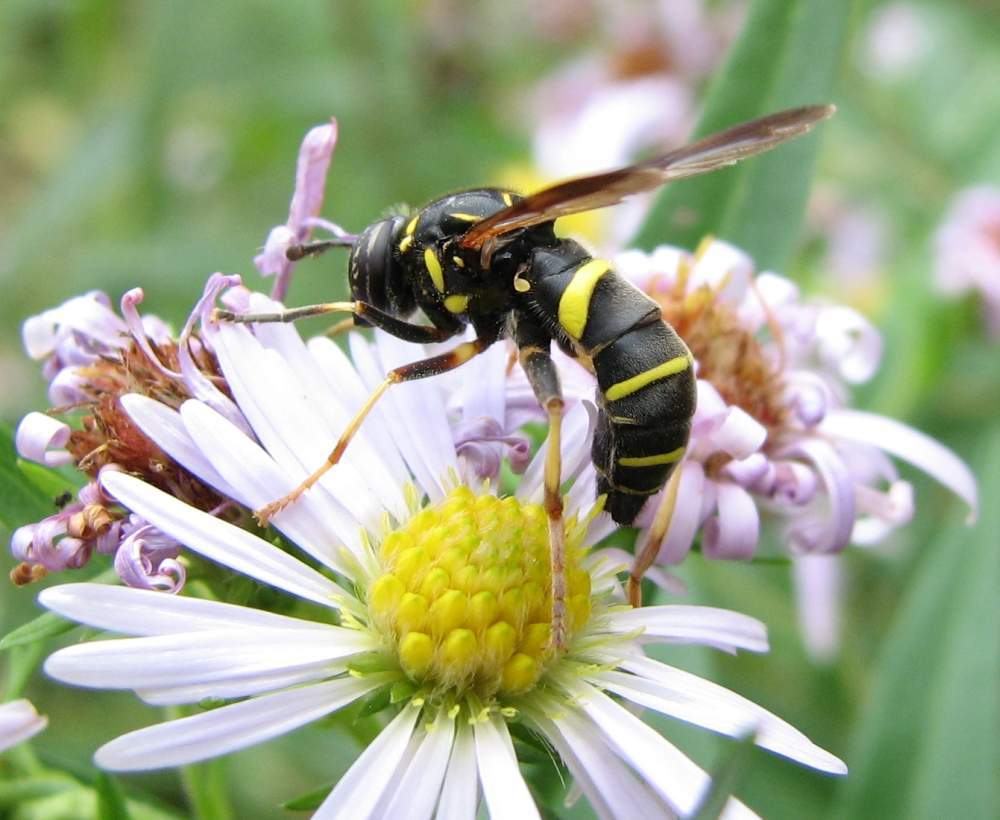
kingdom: Animalia
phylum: Arthropoda
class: Insecta
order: Diptera
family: Syrphidae
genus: Spilomyia
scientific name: Spilomyia sayi
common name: Four-lined hornet fly
